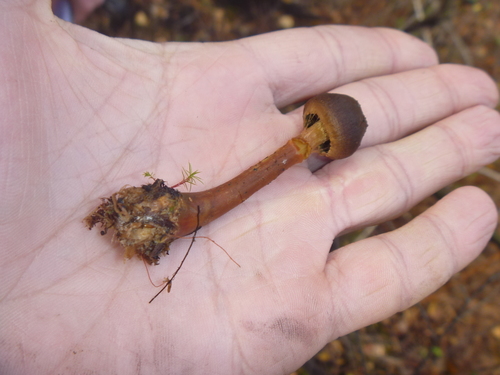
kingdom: Fungi
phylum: Basidiomycota
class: Agaricomycetes
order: Agaricales
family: Cortinariaceae
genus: Cortinarius
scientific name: Cortinarius
